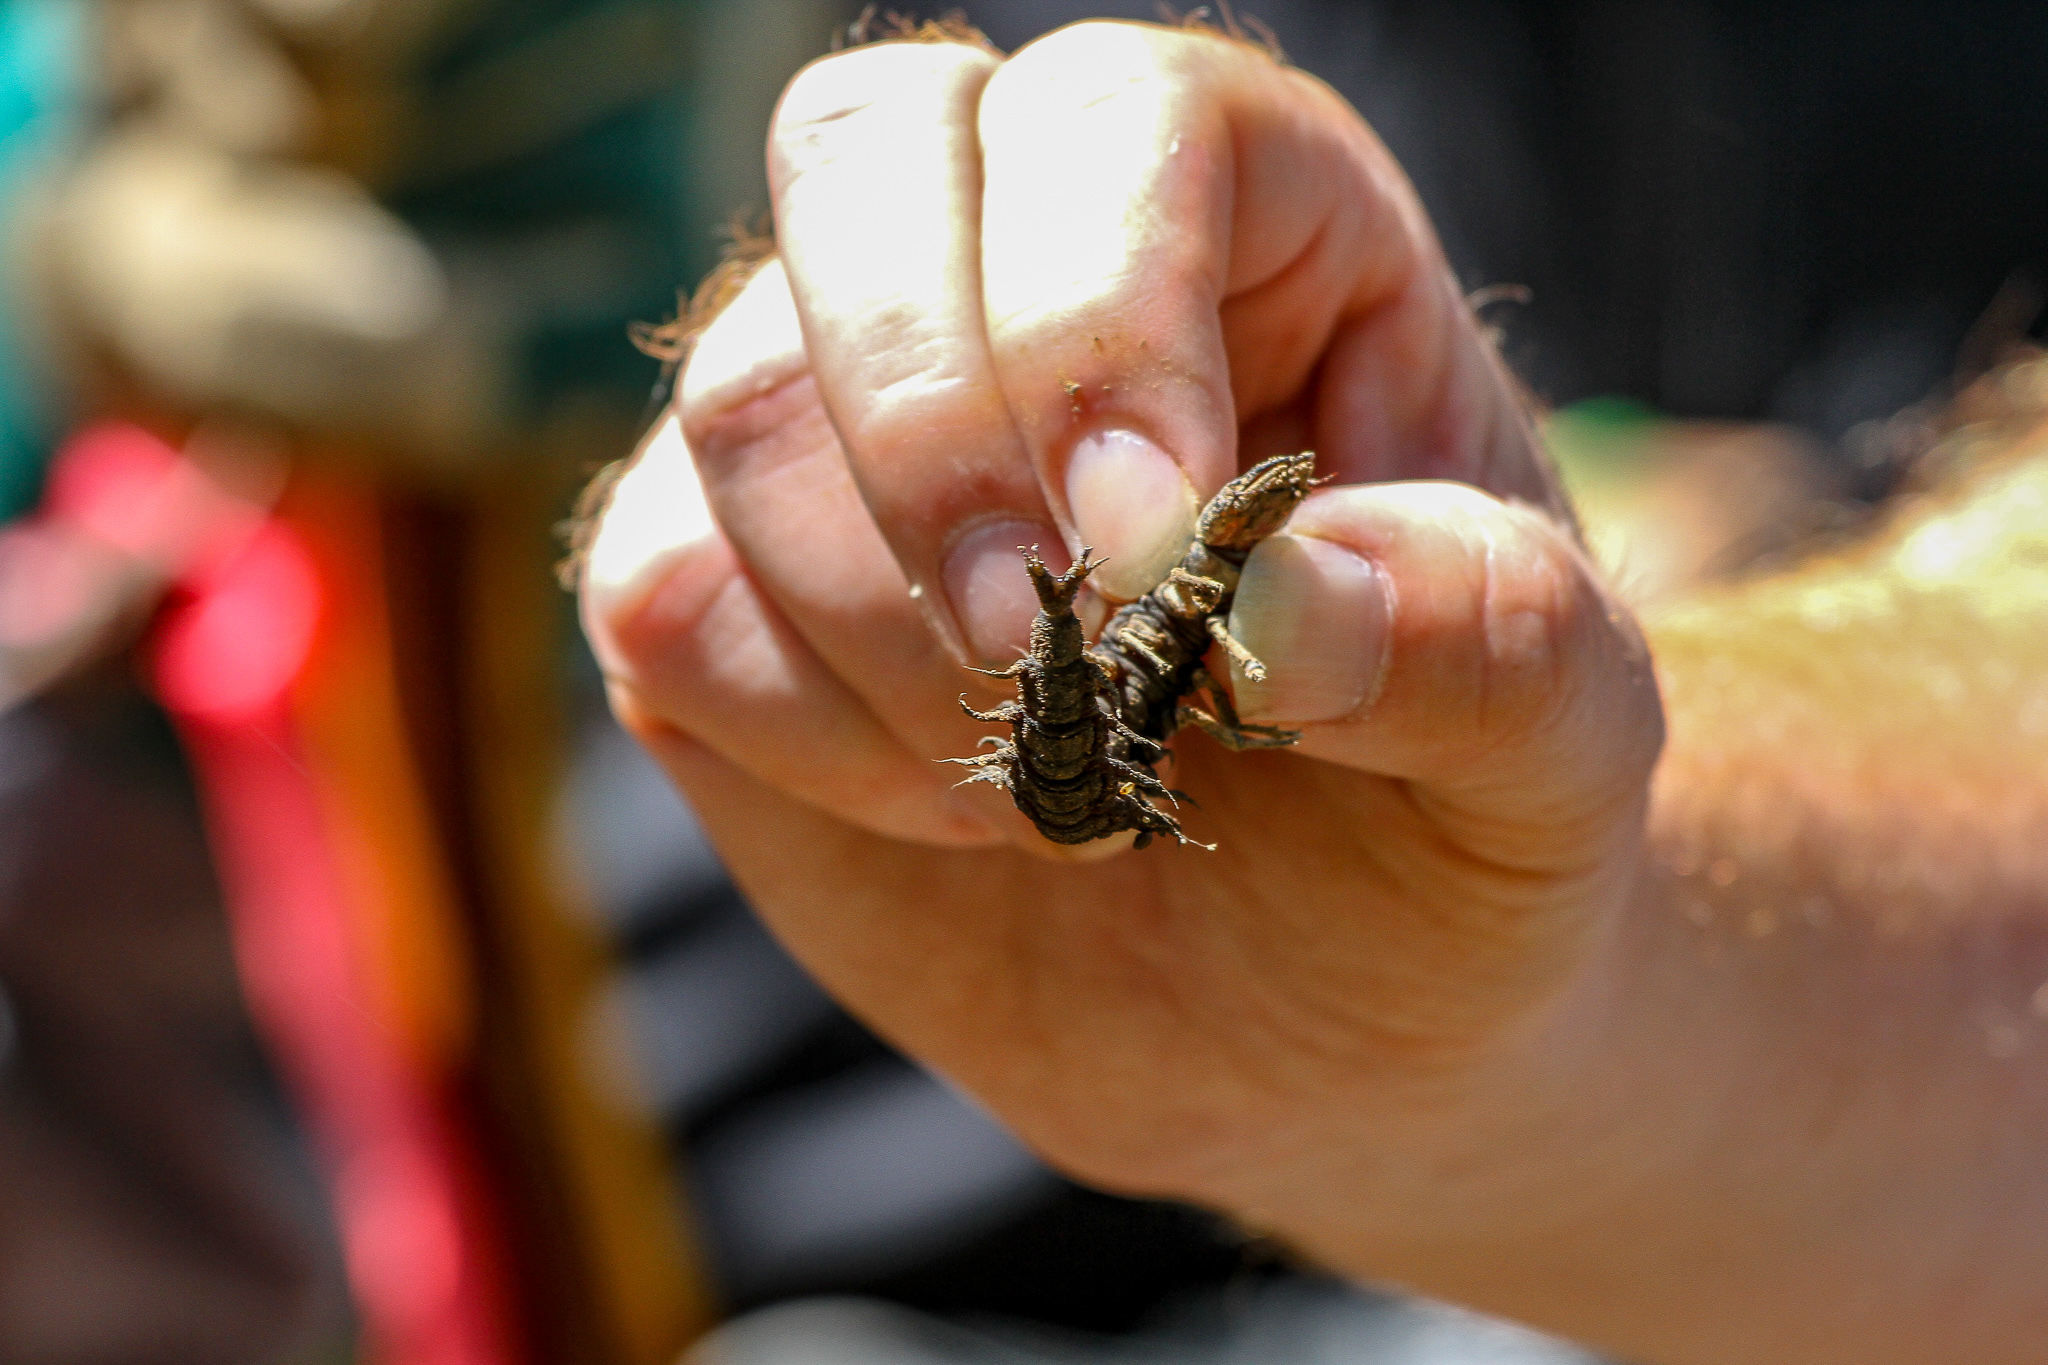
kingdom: Animalia
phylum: Arthropoda
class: Insecta
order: Megaloptera
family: Corydalidae
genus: Corydalus
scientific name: Corydalus cornutus
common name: Dobsonfly
